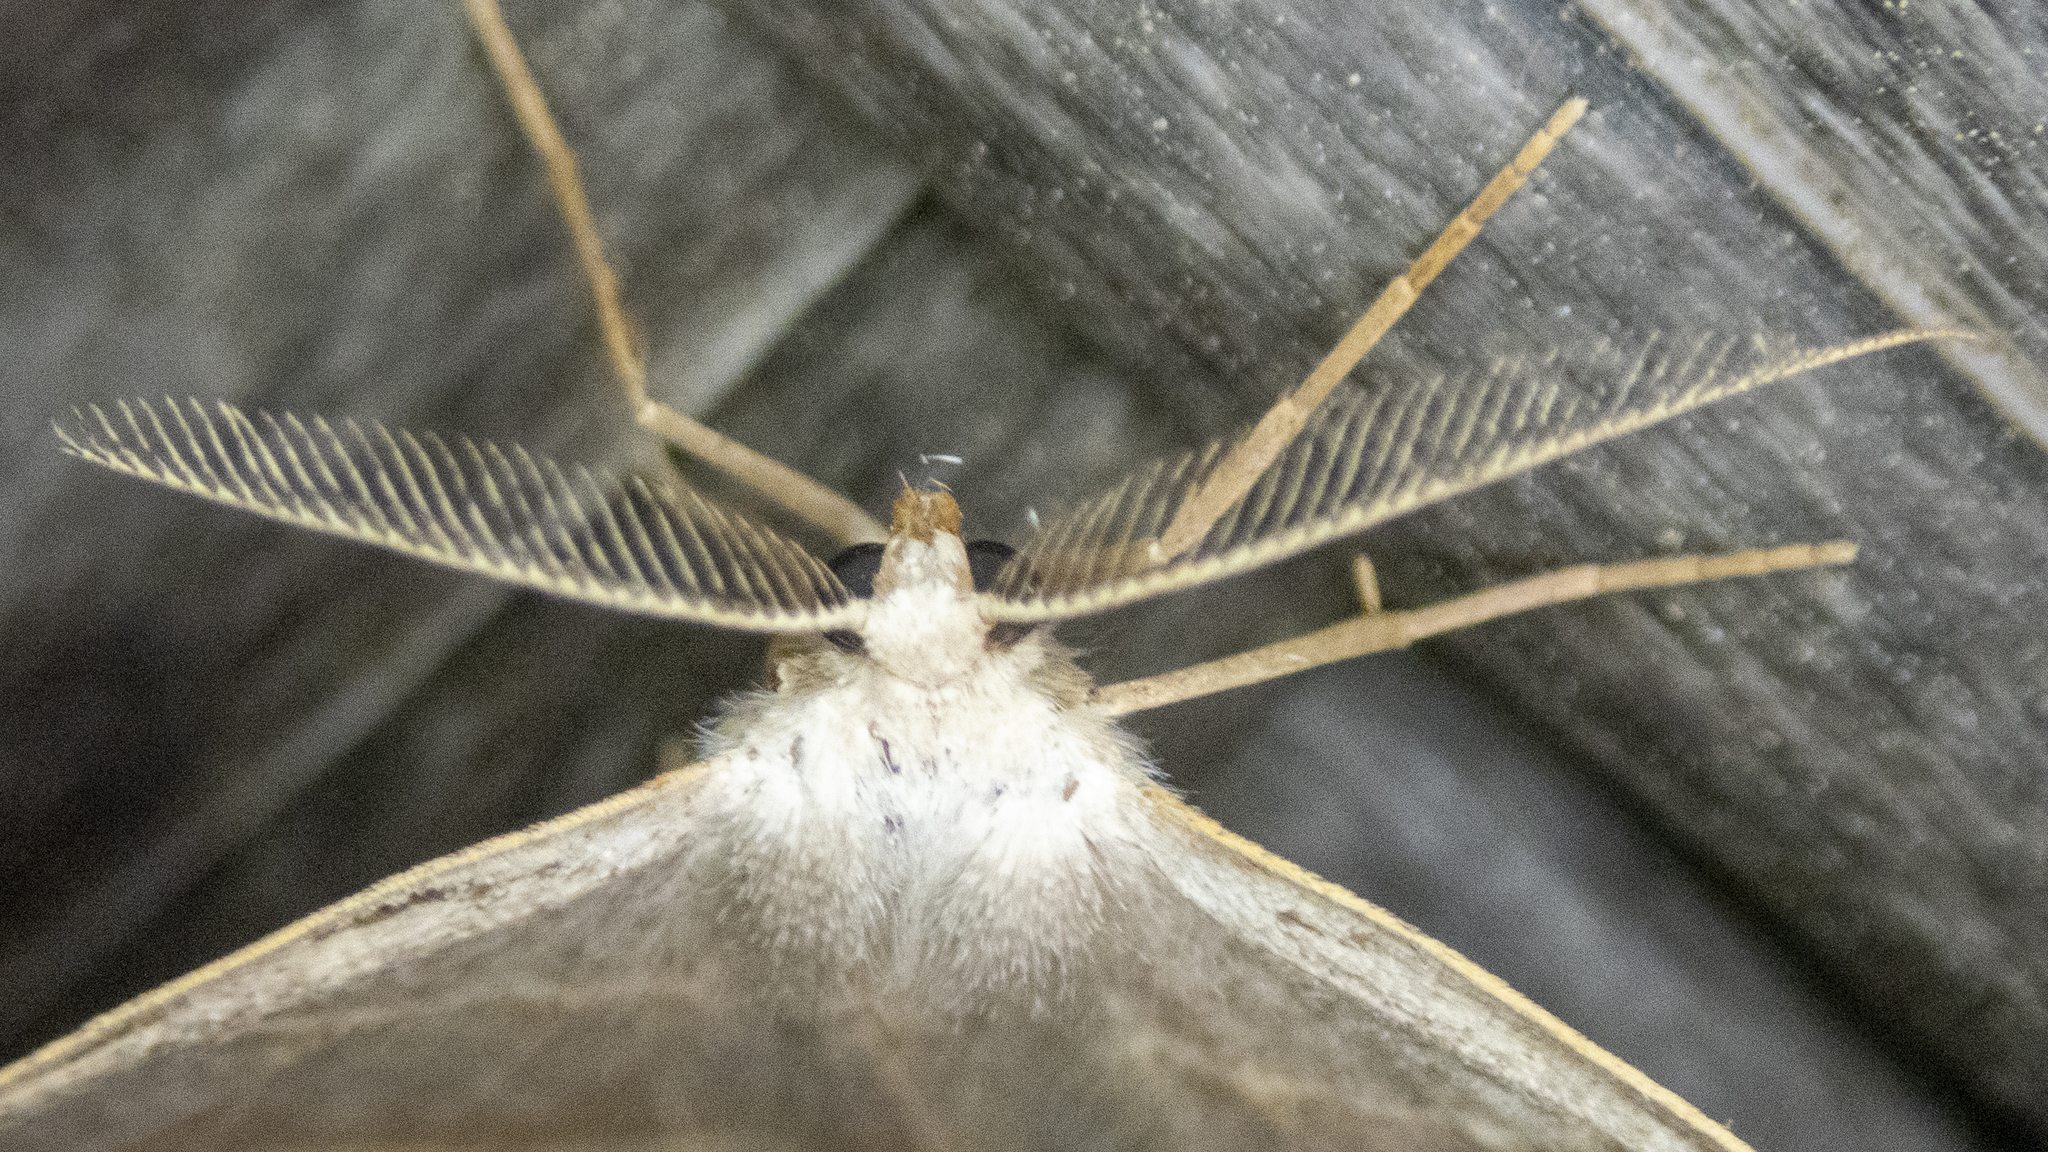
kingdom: Animalia
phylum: Arthropoda
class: Insecta
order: Lepidoptera
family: Geometridae
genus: Eusarca
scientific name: Eusarca confusaria
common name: Confused eusarca
